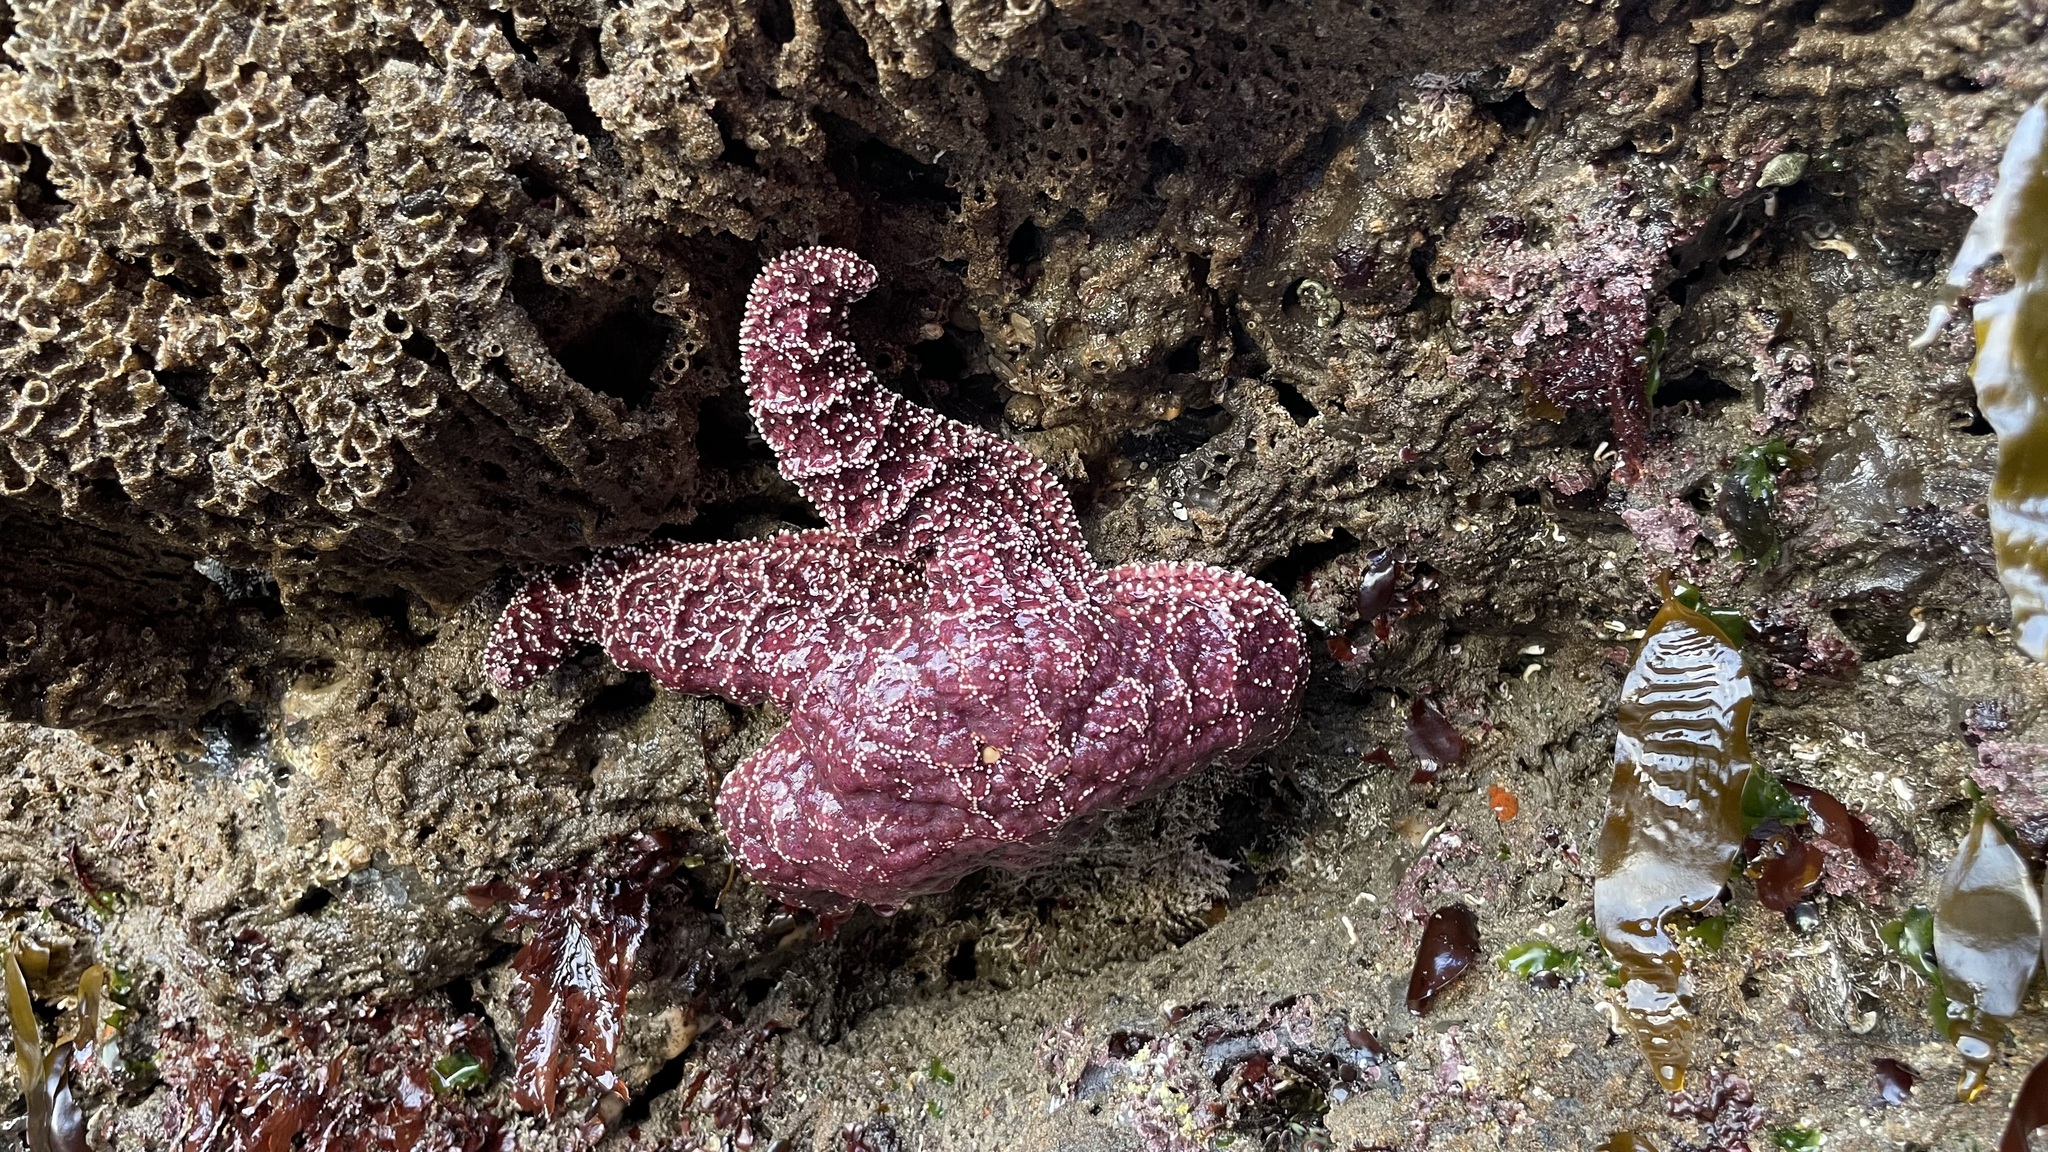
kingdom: Animalia
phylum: Echinodermata
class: Asteroidea
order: Forcipulatida
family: Asteriidae
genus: Pisaster
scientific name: Pisaster ochraceus
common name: Ochre stars
